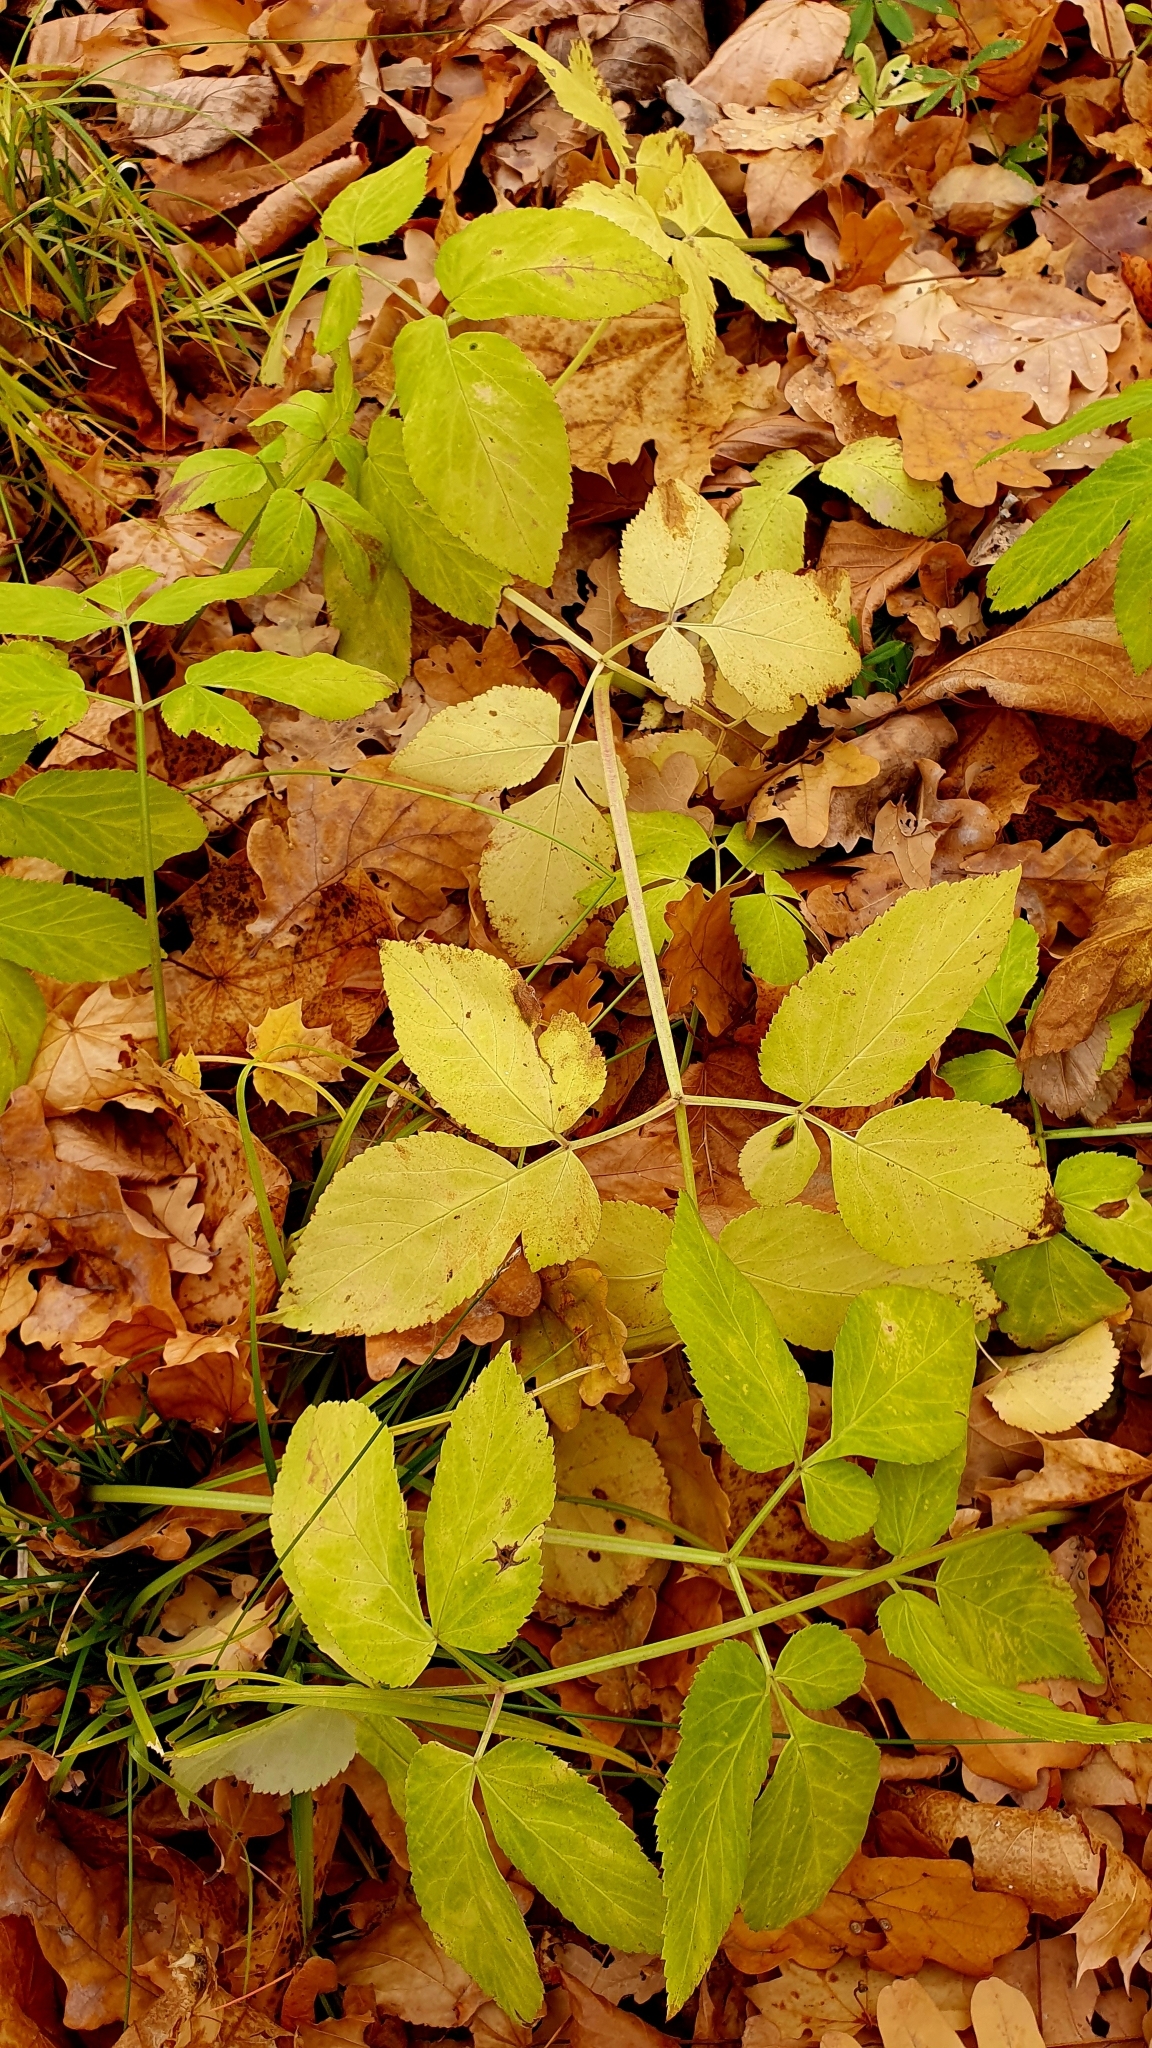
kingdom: Plantae
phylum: Tracheophyta
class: Magnoliopsida
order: Apiales
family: Apiaceae
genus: Aegopodium
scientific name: Aegopodium podagraria
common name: Ground-elder
